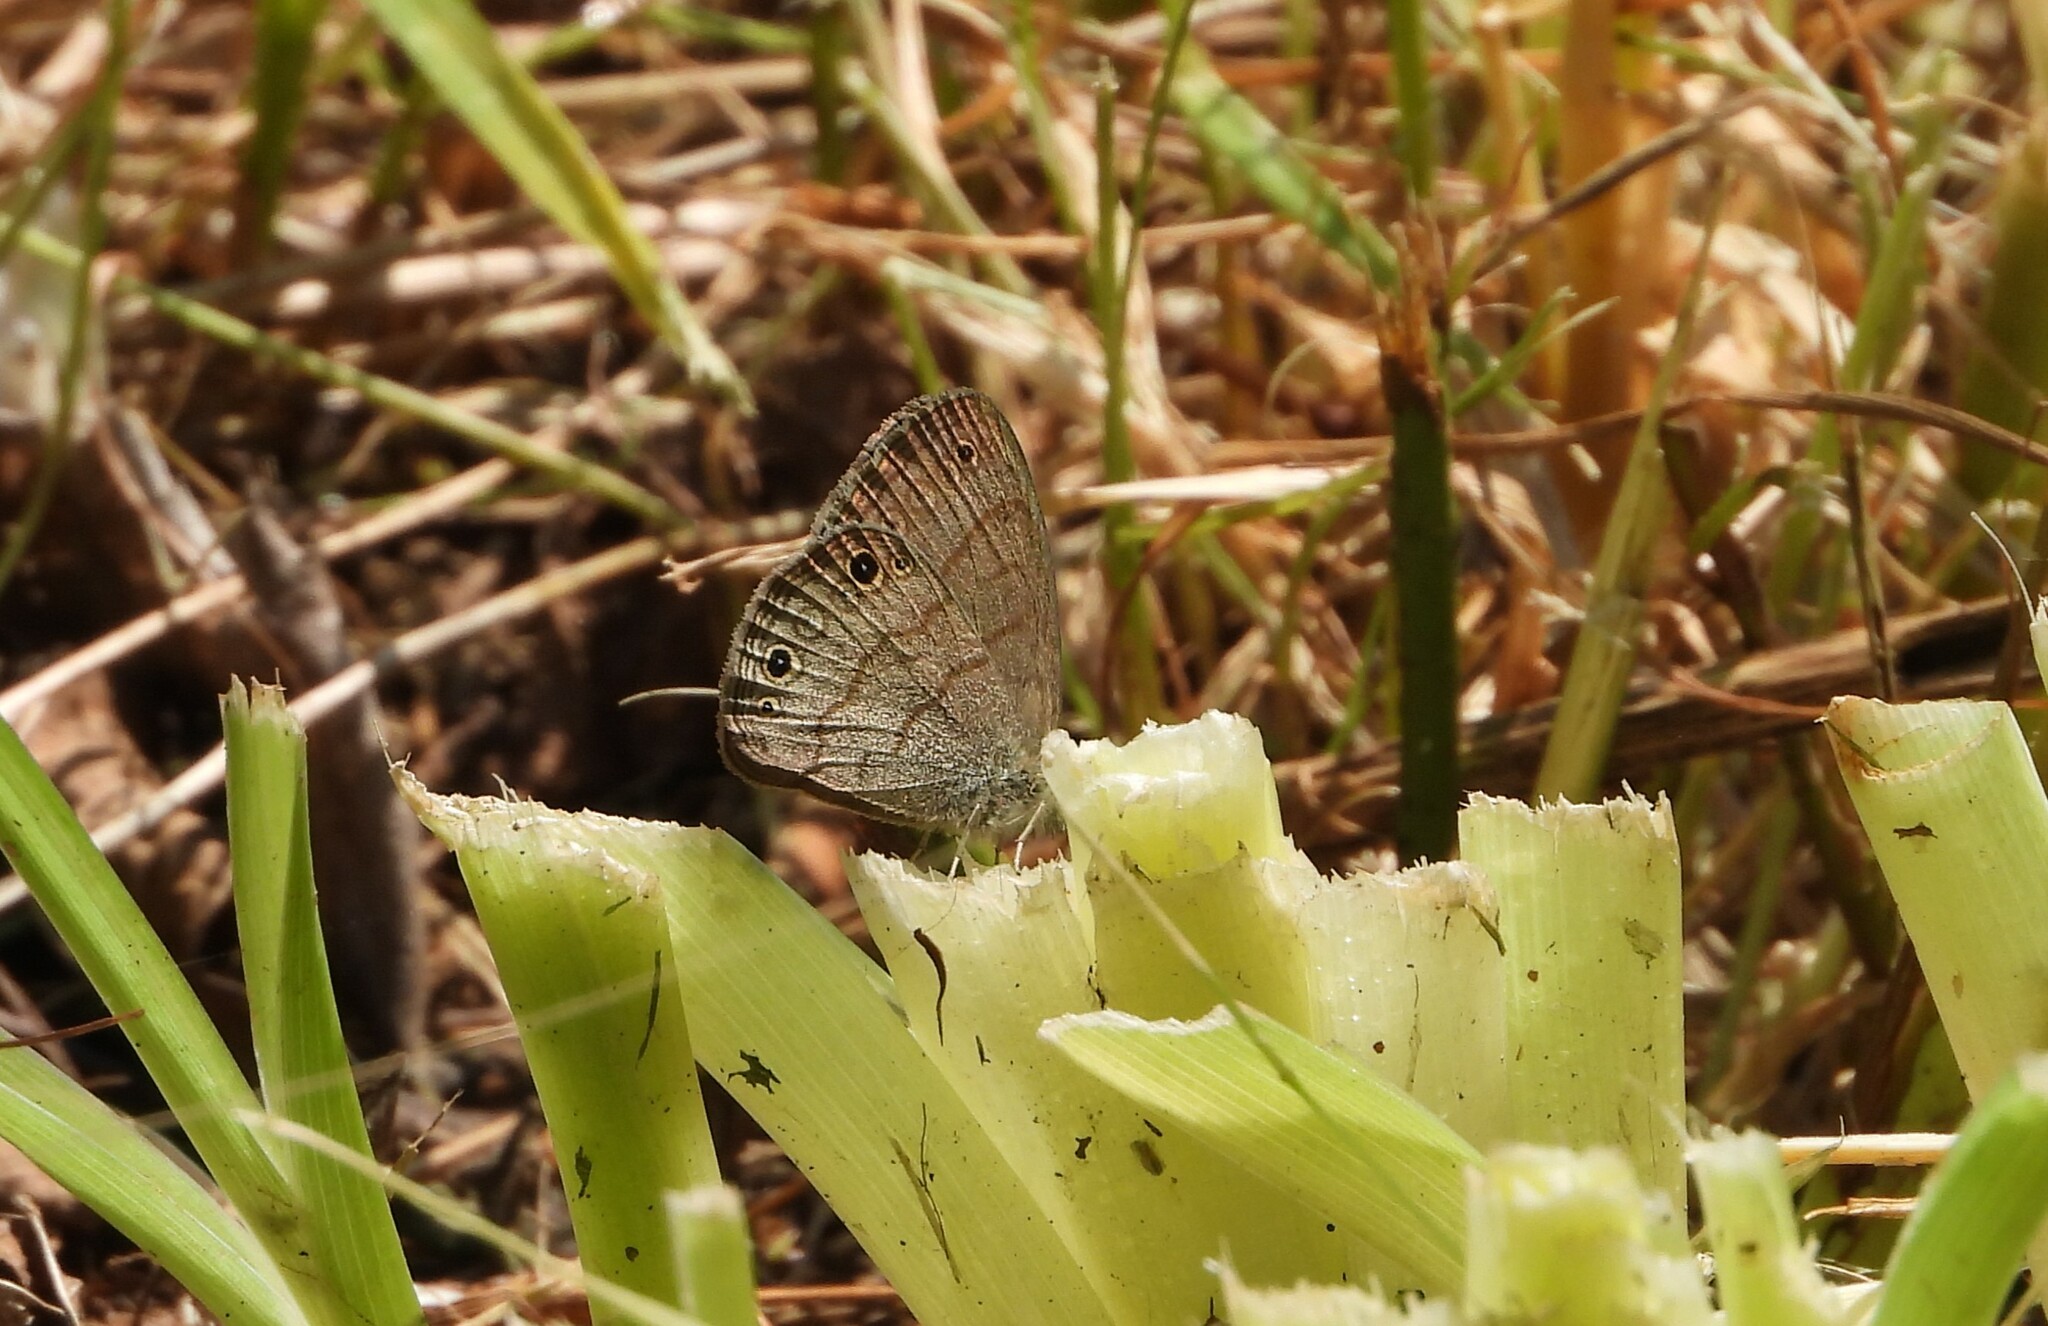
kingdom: Animalia
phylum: Arthropoda
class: Insecta
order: Lepidoptera
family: Nymphalidae
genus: Hermeuptychia
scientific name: Hermeuptychia hermes
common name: Hermes satyr
